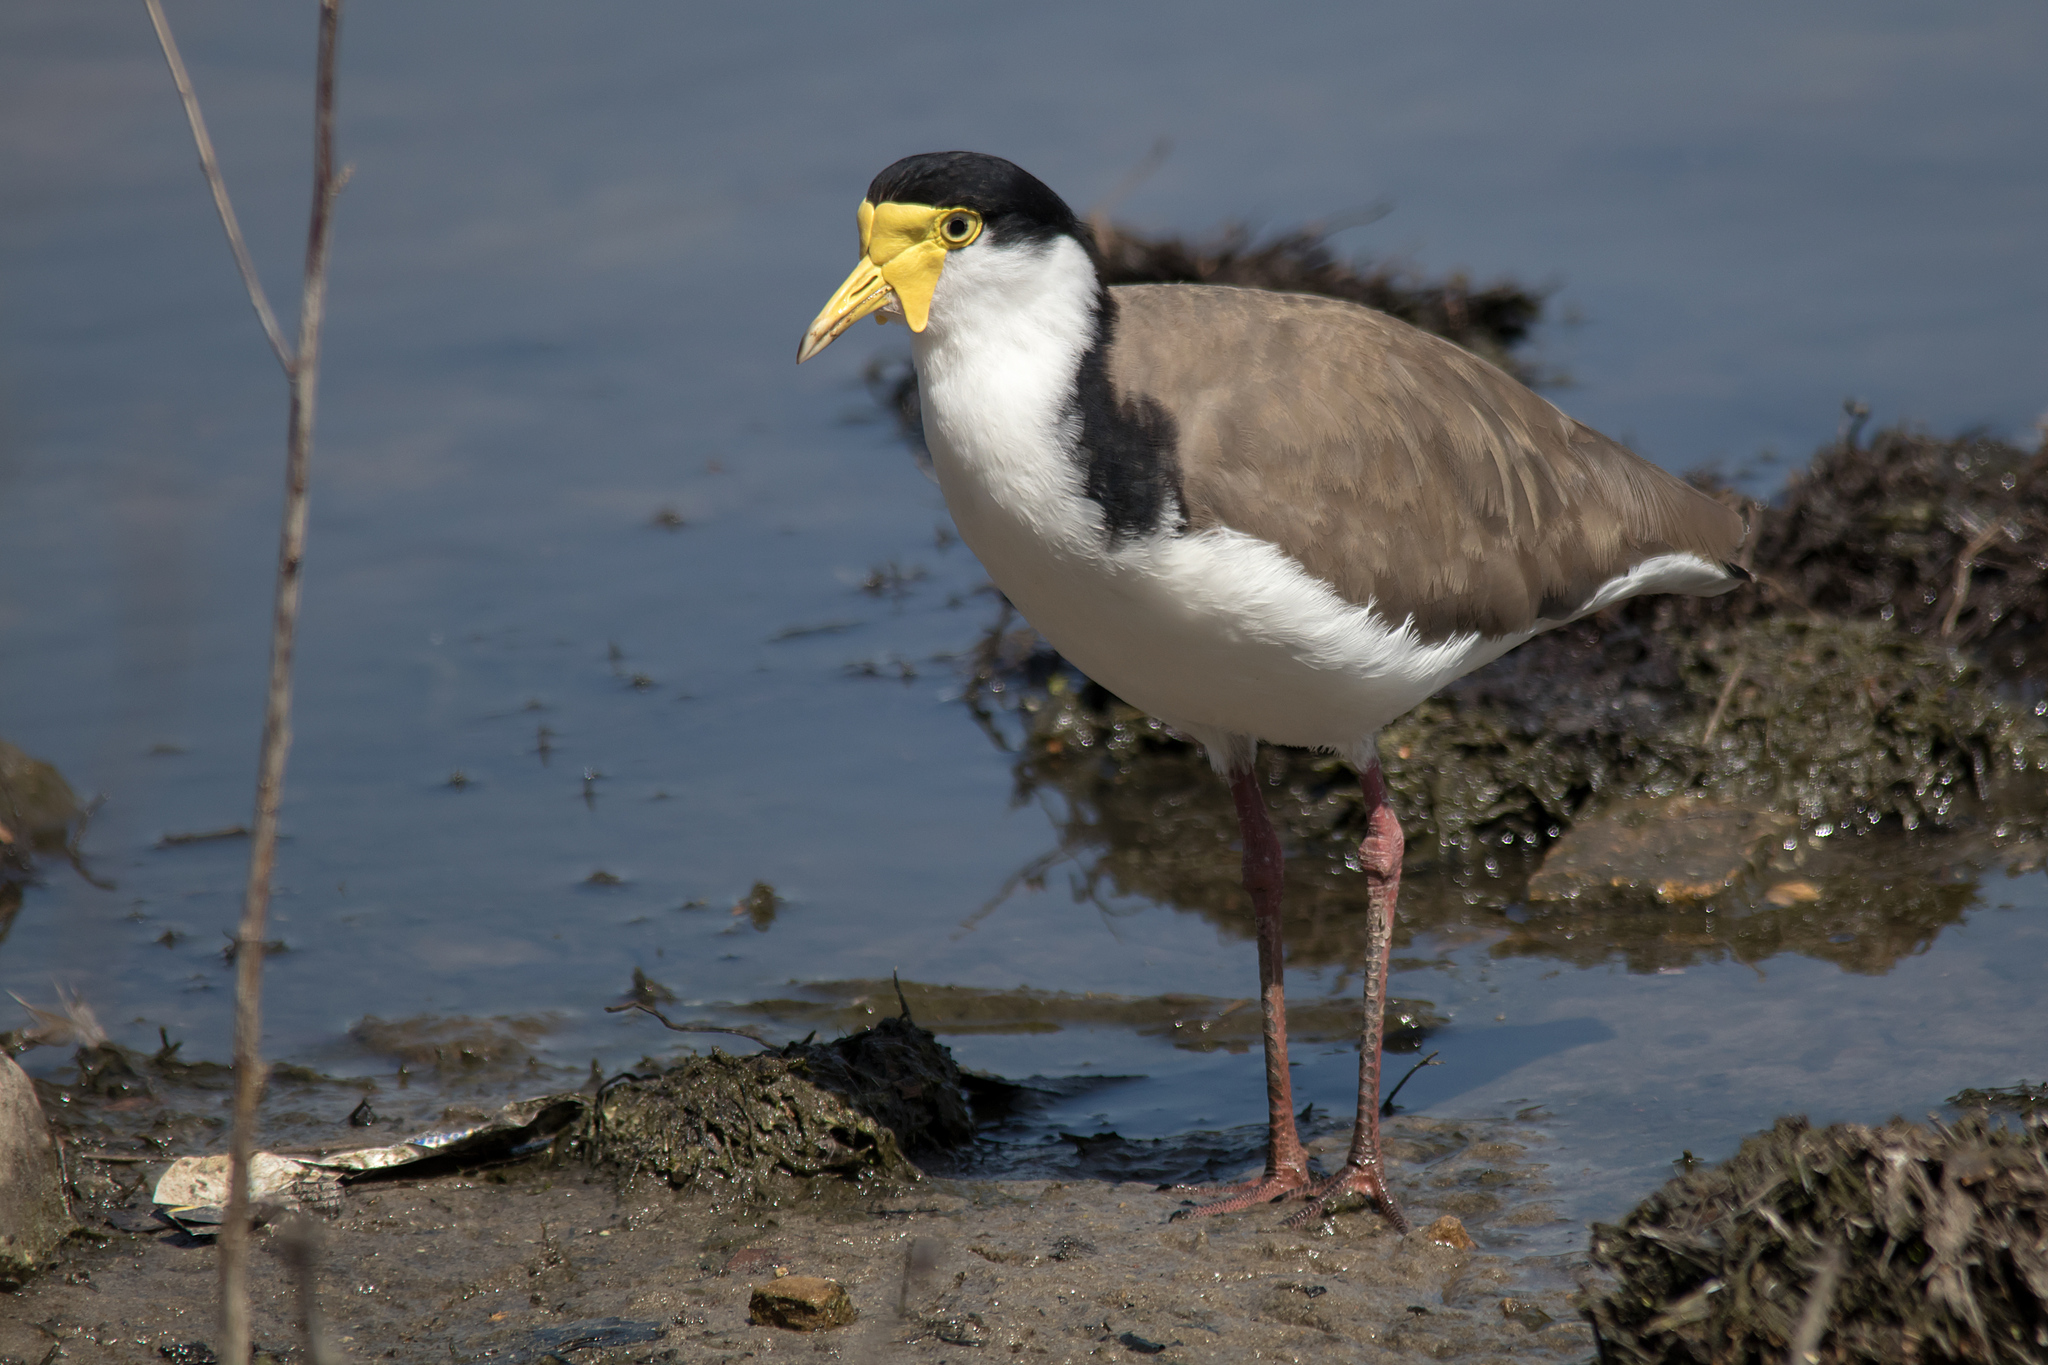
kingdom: Animalia
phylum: Chordata
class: Aves
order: Charadriiformes
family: Charadriidae
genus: Vanellus
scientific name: Vanellus miles
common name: Masked lapwing
